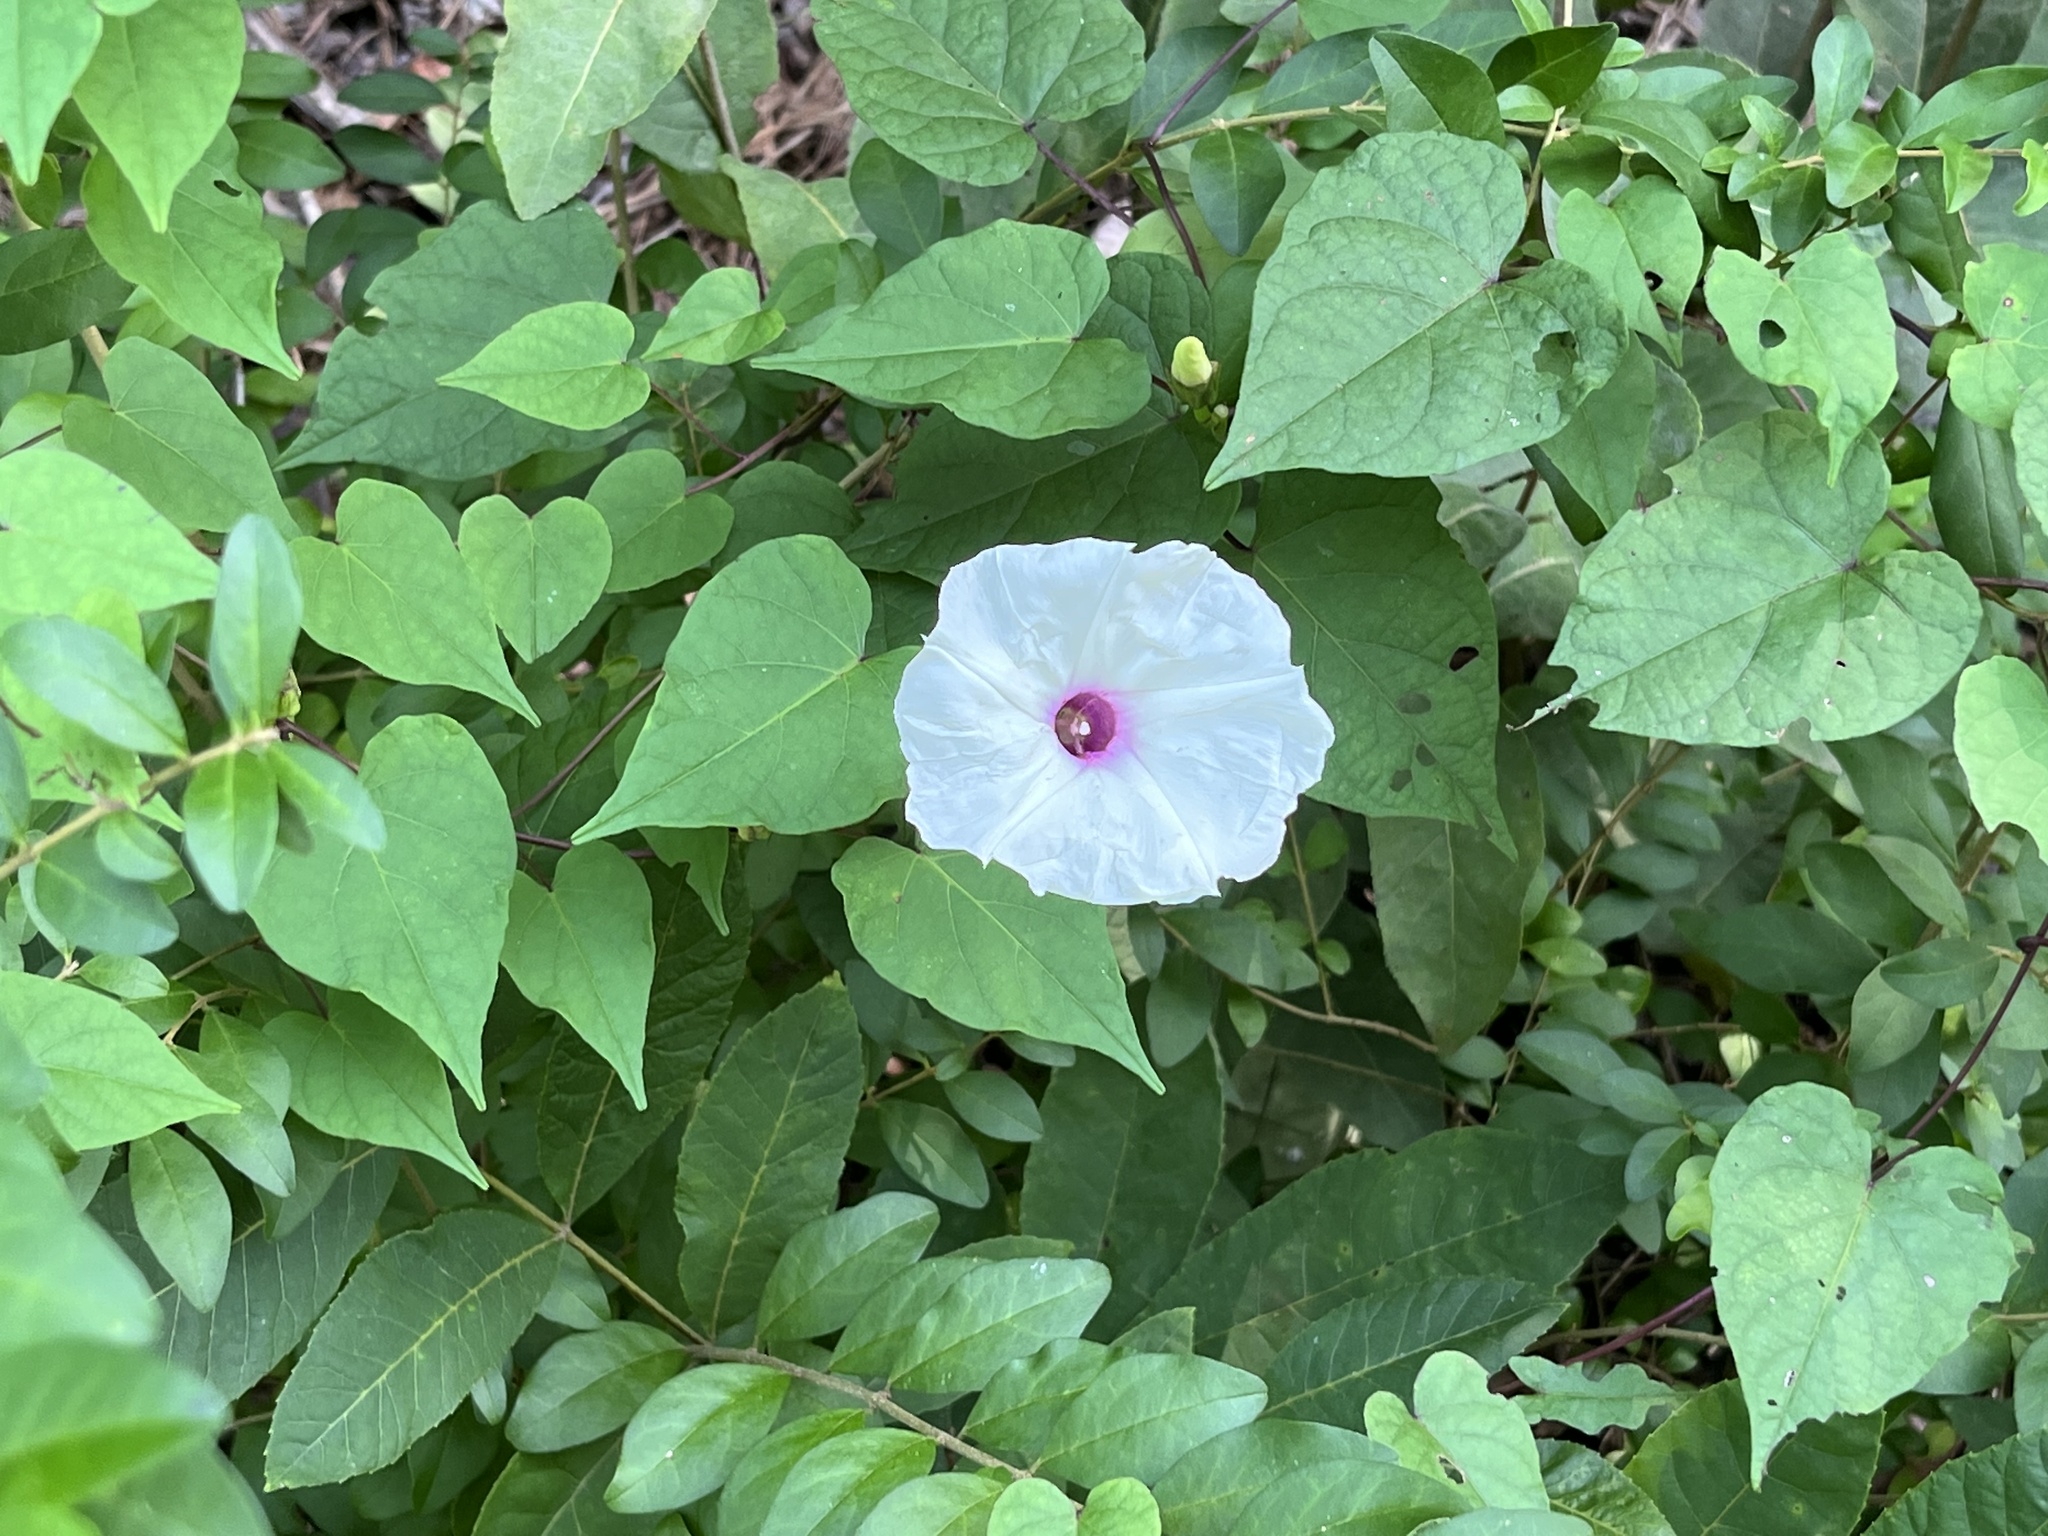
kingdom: Plantae
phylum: Tracheophyta
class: Magnoliopsida
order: Solanales
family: Convolvulaceae
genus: Ipomoea
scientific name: Ipomoea pandurata
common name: Man-of-the-earth
